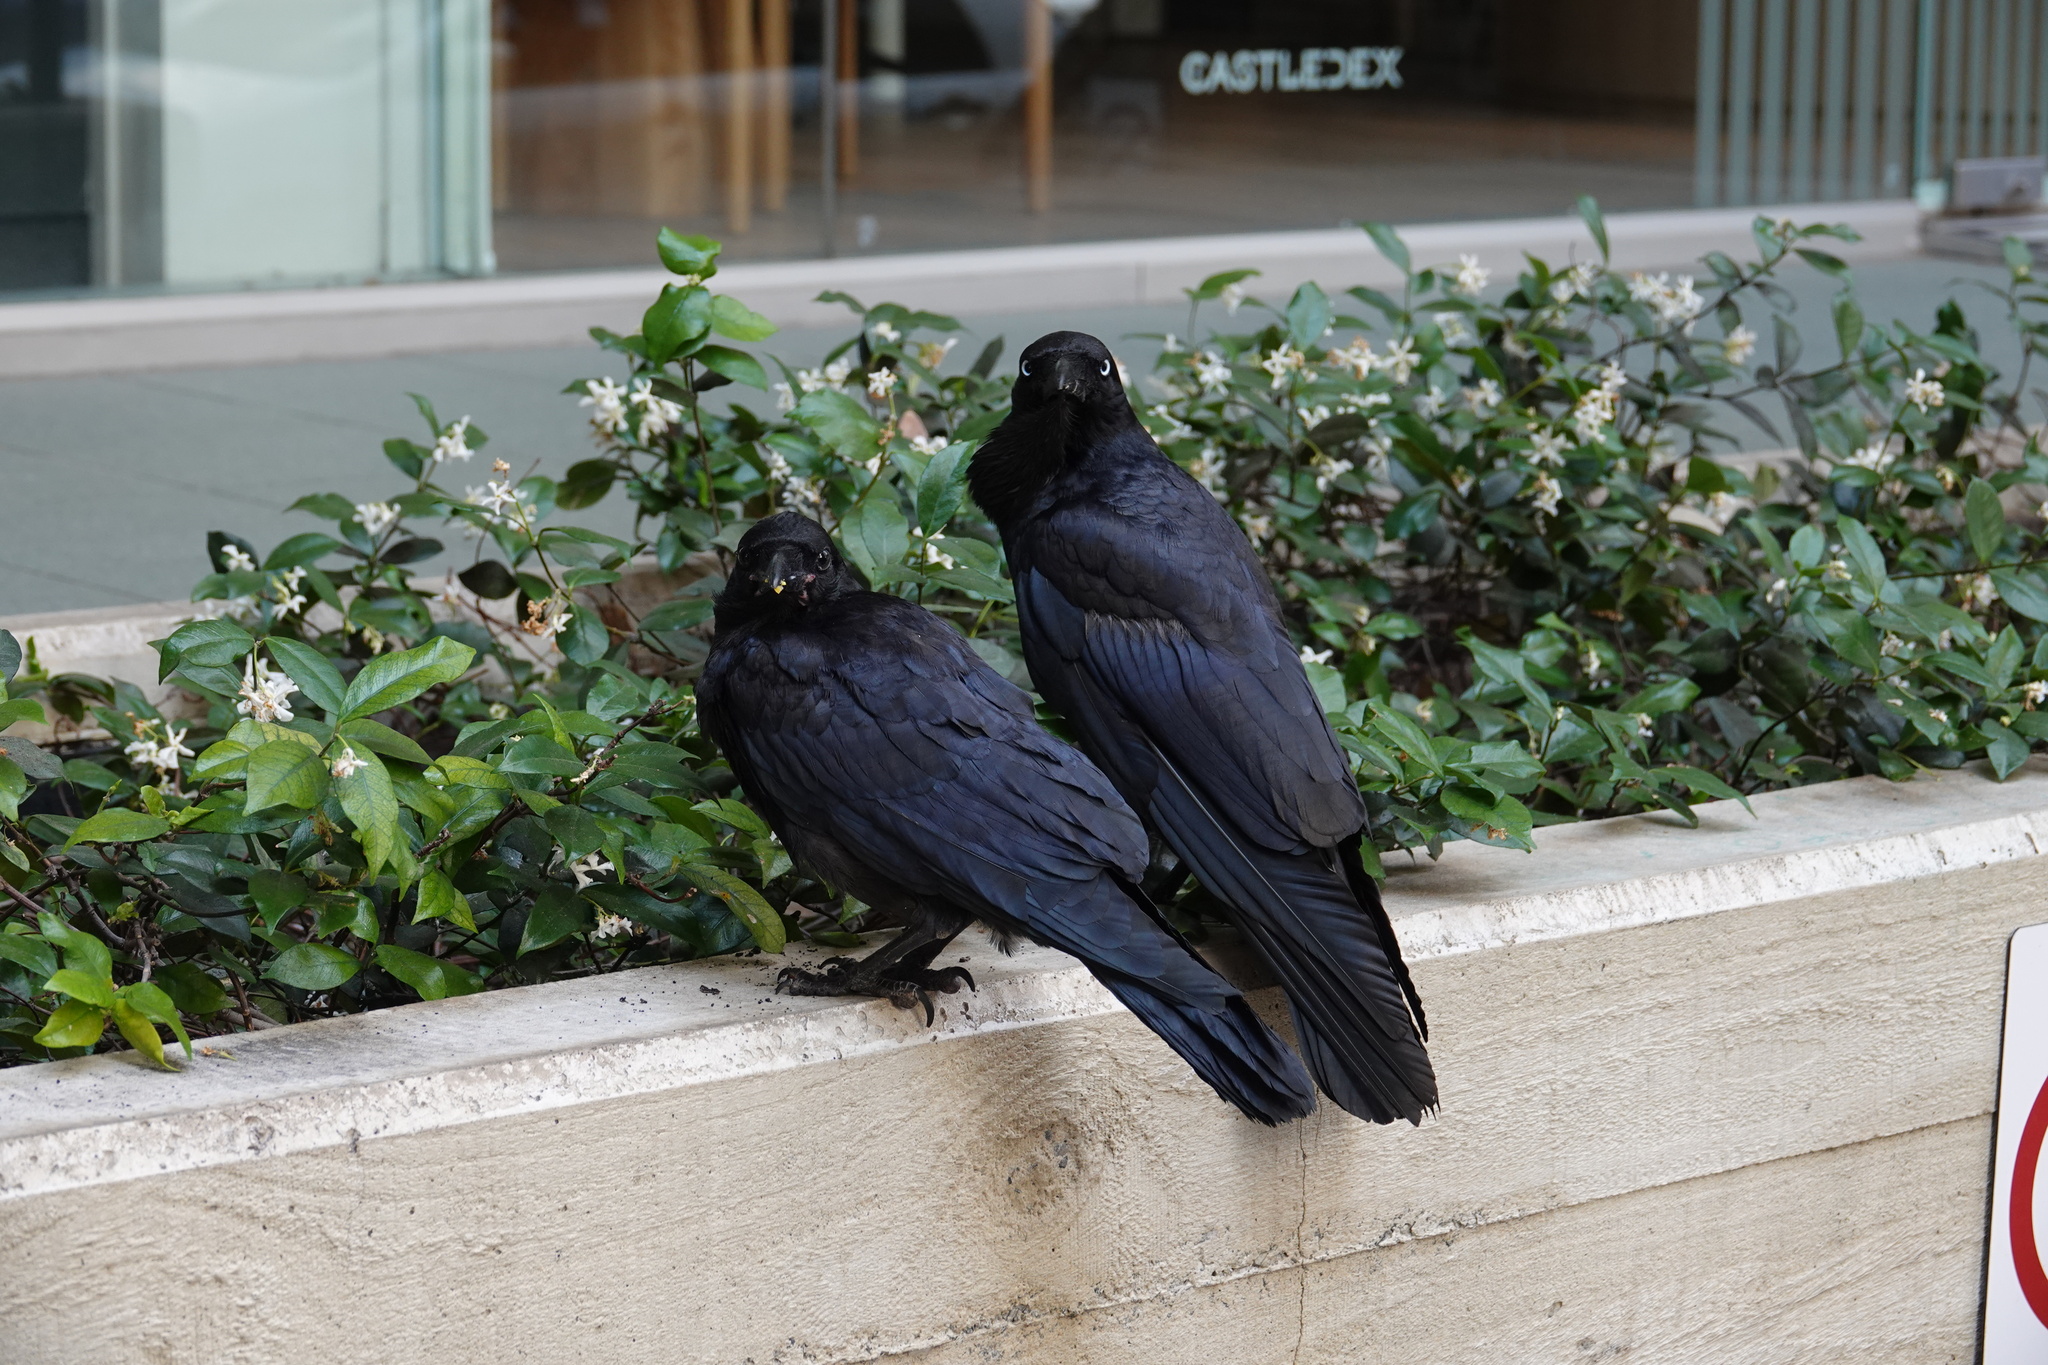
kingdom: Animalia
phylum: Chordata
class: Aves
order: Passeriformes
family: Corvidae
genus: Corvus
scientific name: Corvus coronoides
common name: Australian raven
